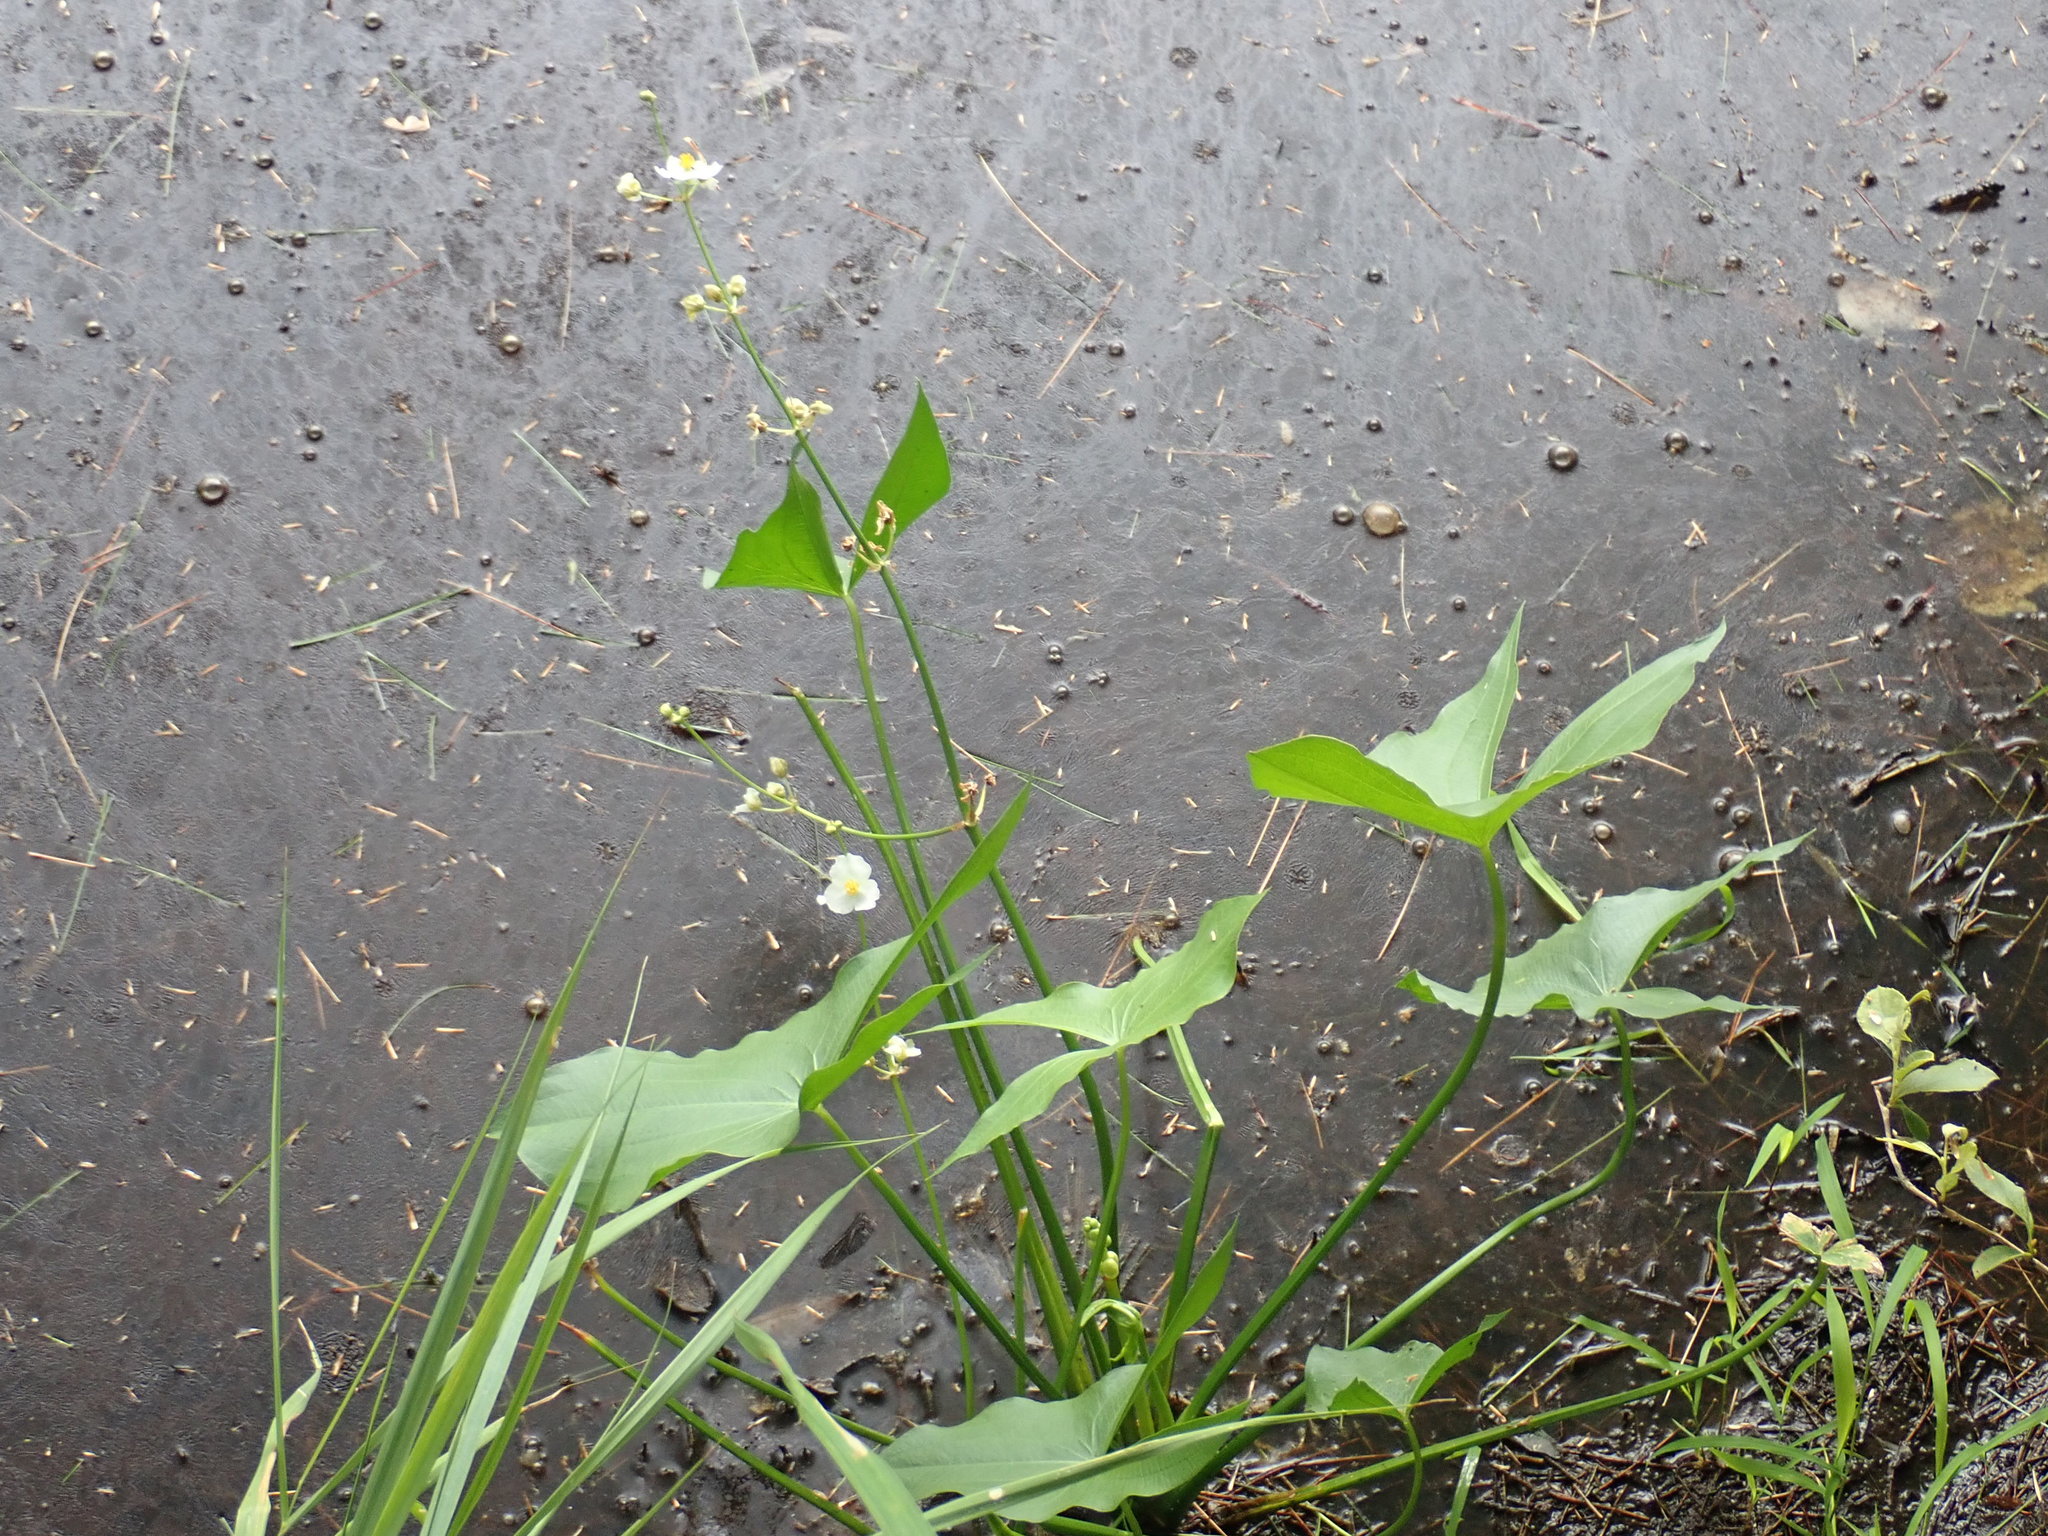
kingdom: Plantae
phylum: Tracheophyta
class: Liliopsida
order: Alismatales
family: Alismataceae
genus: Sagittaria
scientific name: Sagittaria latifolia
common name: Duck-potato
